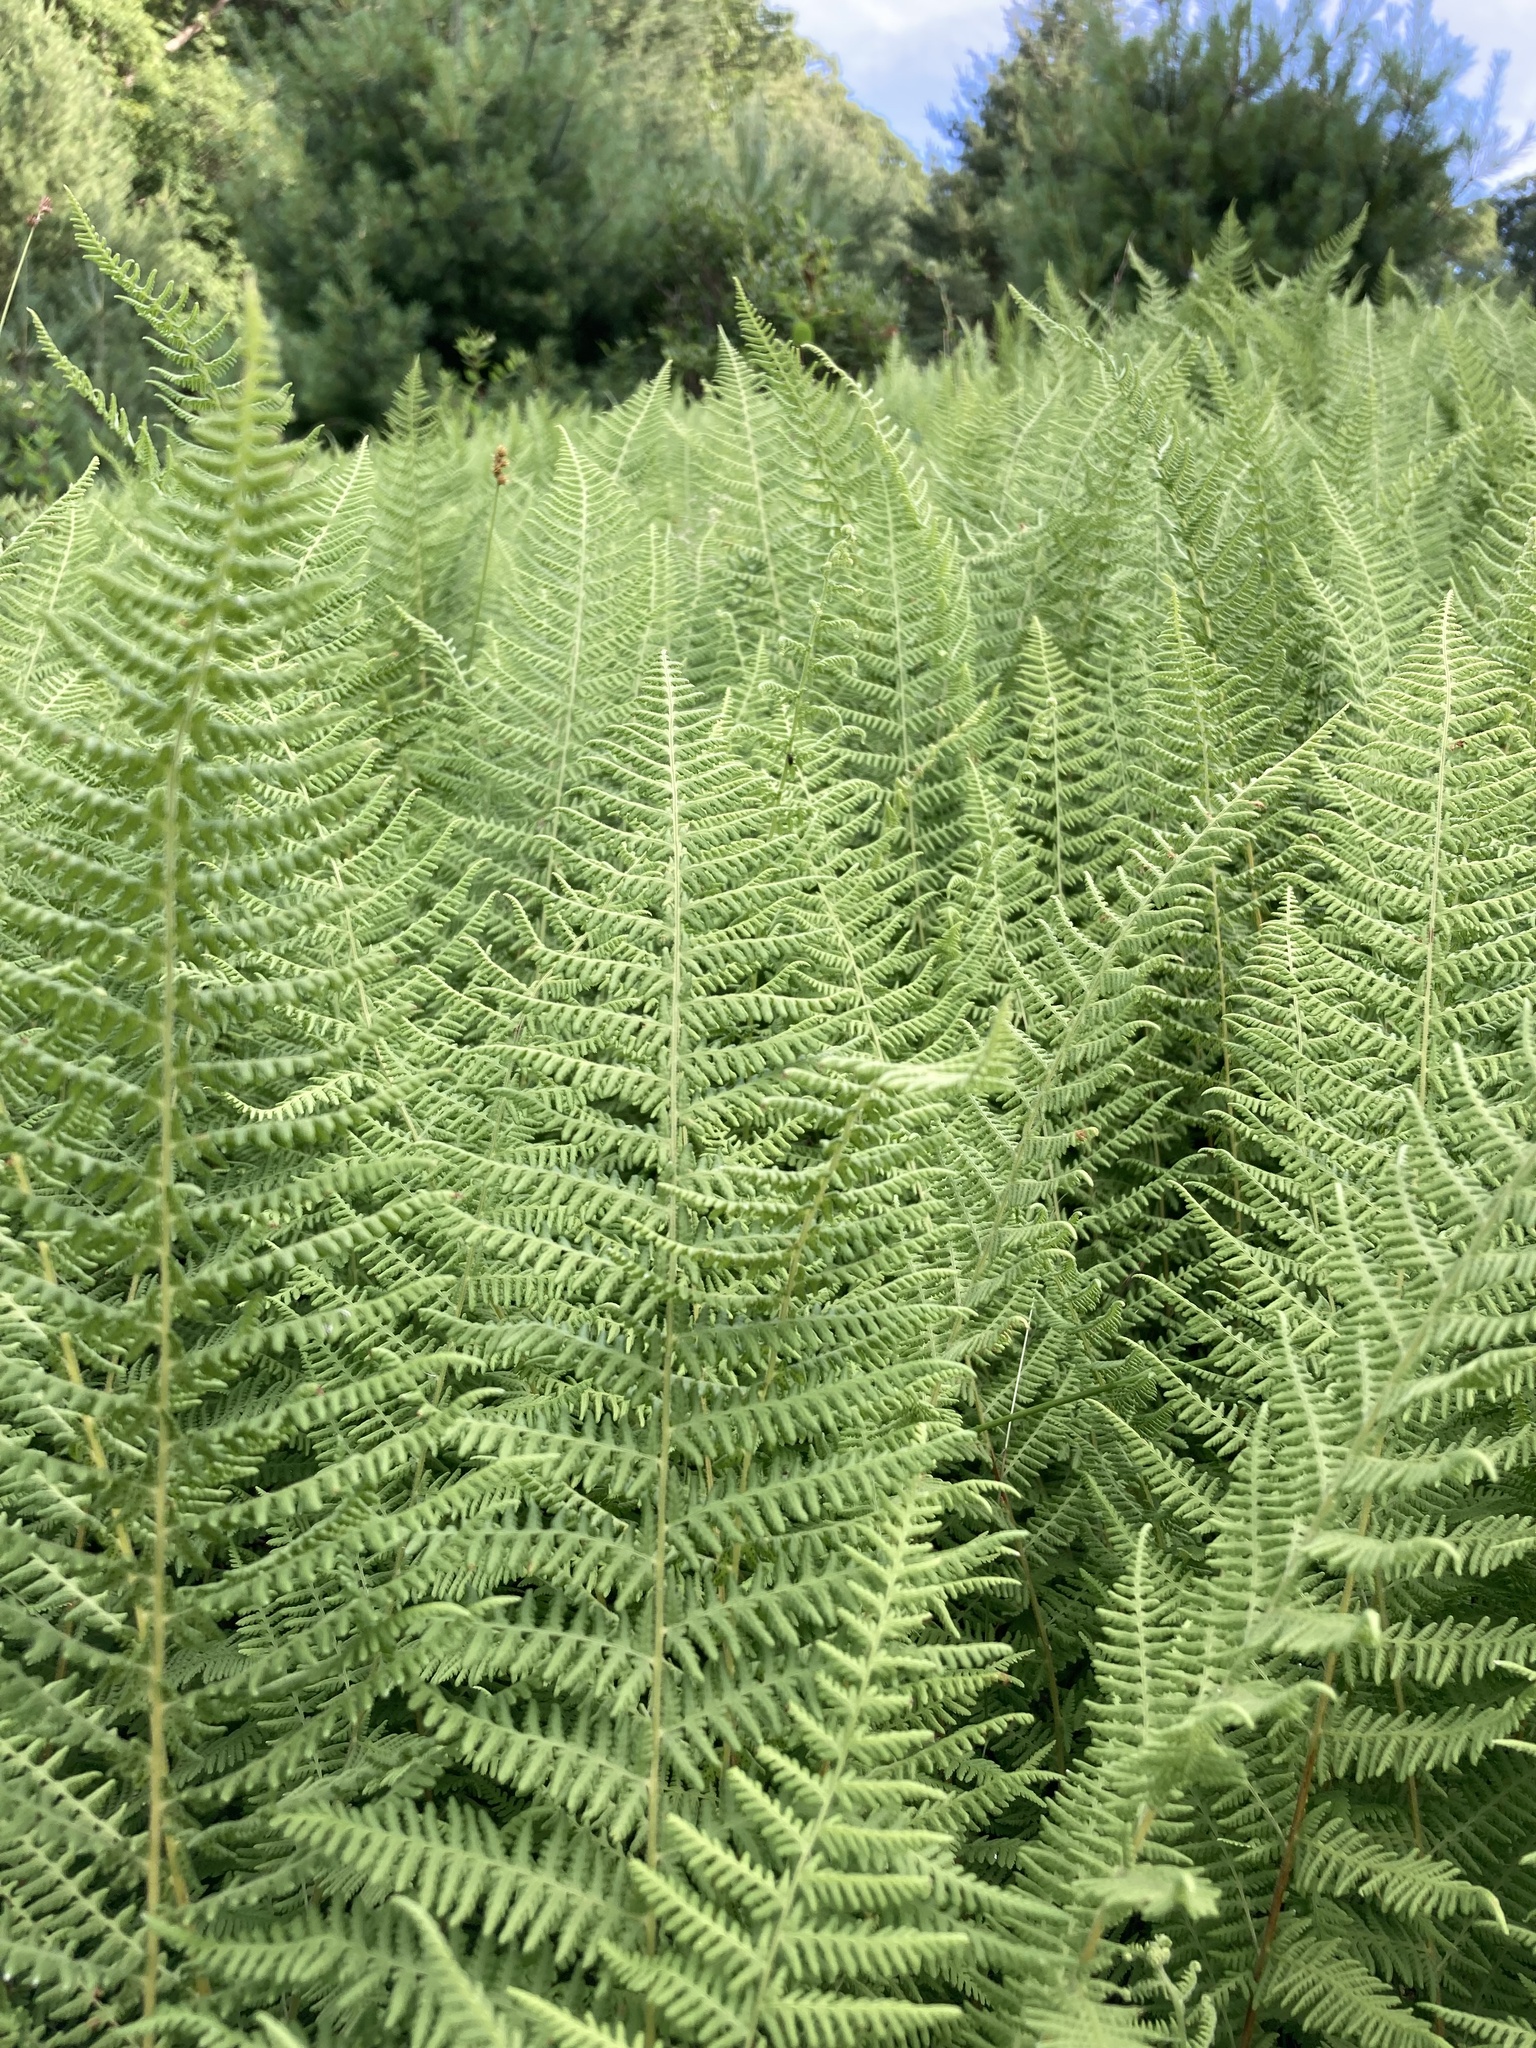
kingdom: Plantae
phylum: Tracheophyta
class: Polypodiopsida
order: Polypodiales
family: Dennstaedtiaceae
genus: Sitobolium
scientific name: Sitobolium punctilobum
